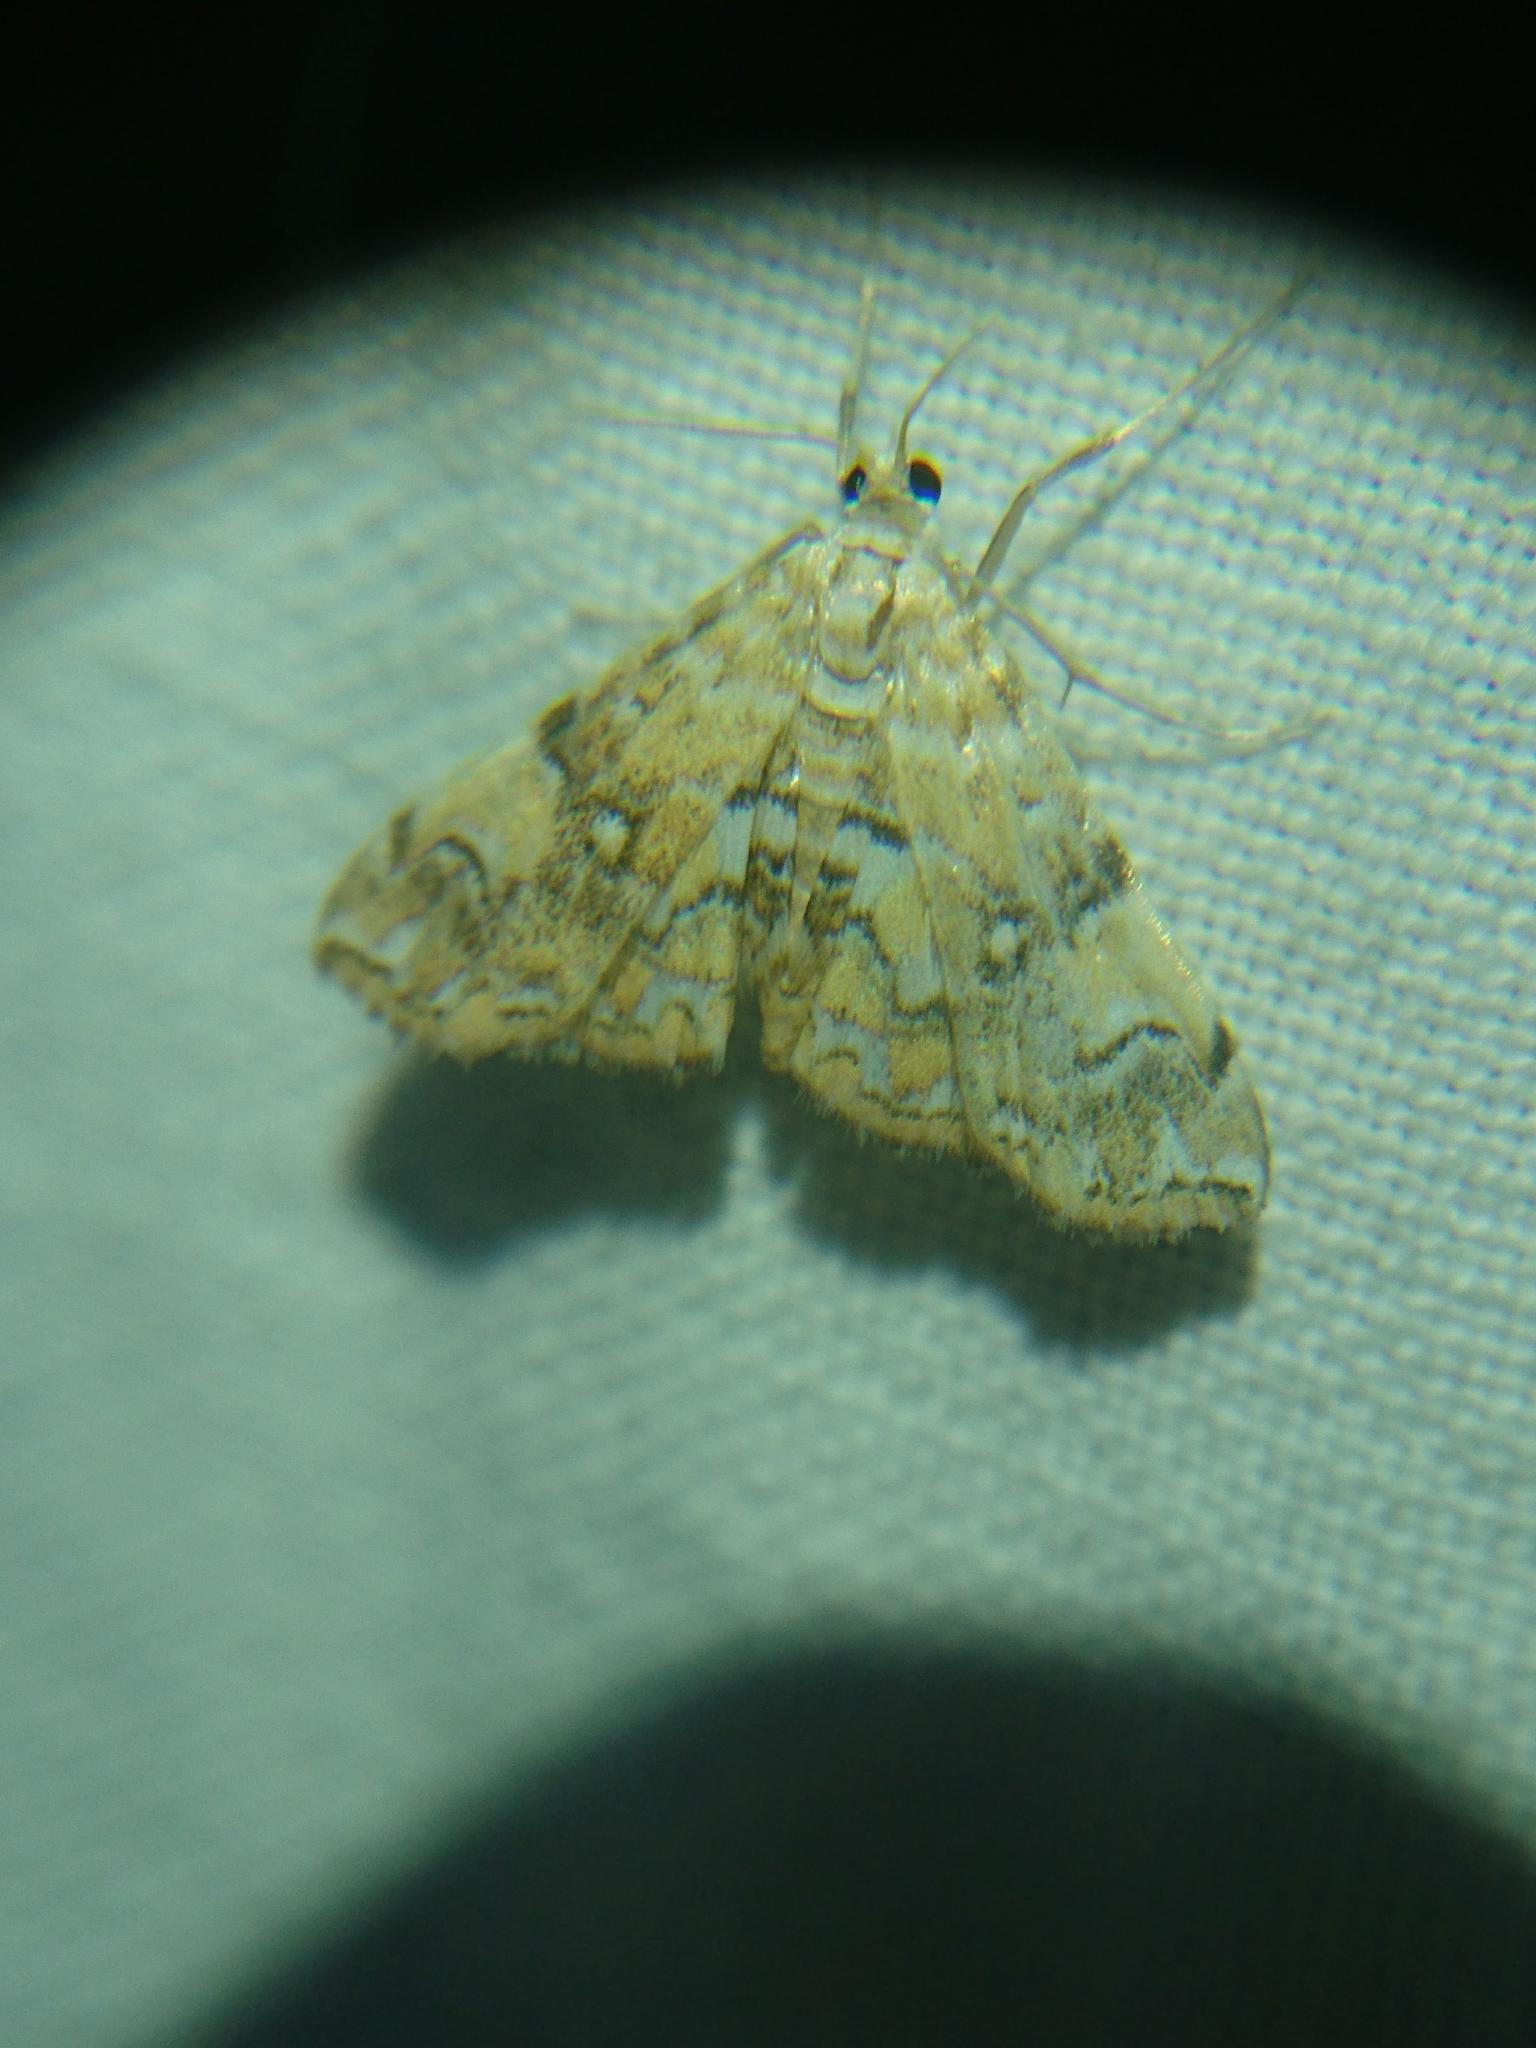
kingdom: Animalia
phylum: Arthropoda
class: Insecta
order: Lepidoptera
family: Crambidae
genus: Elophila
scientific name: Elophila faulalis
